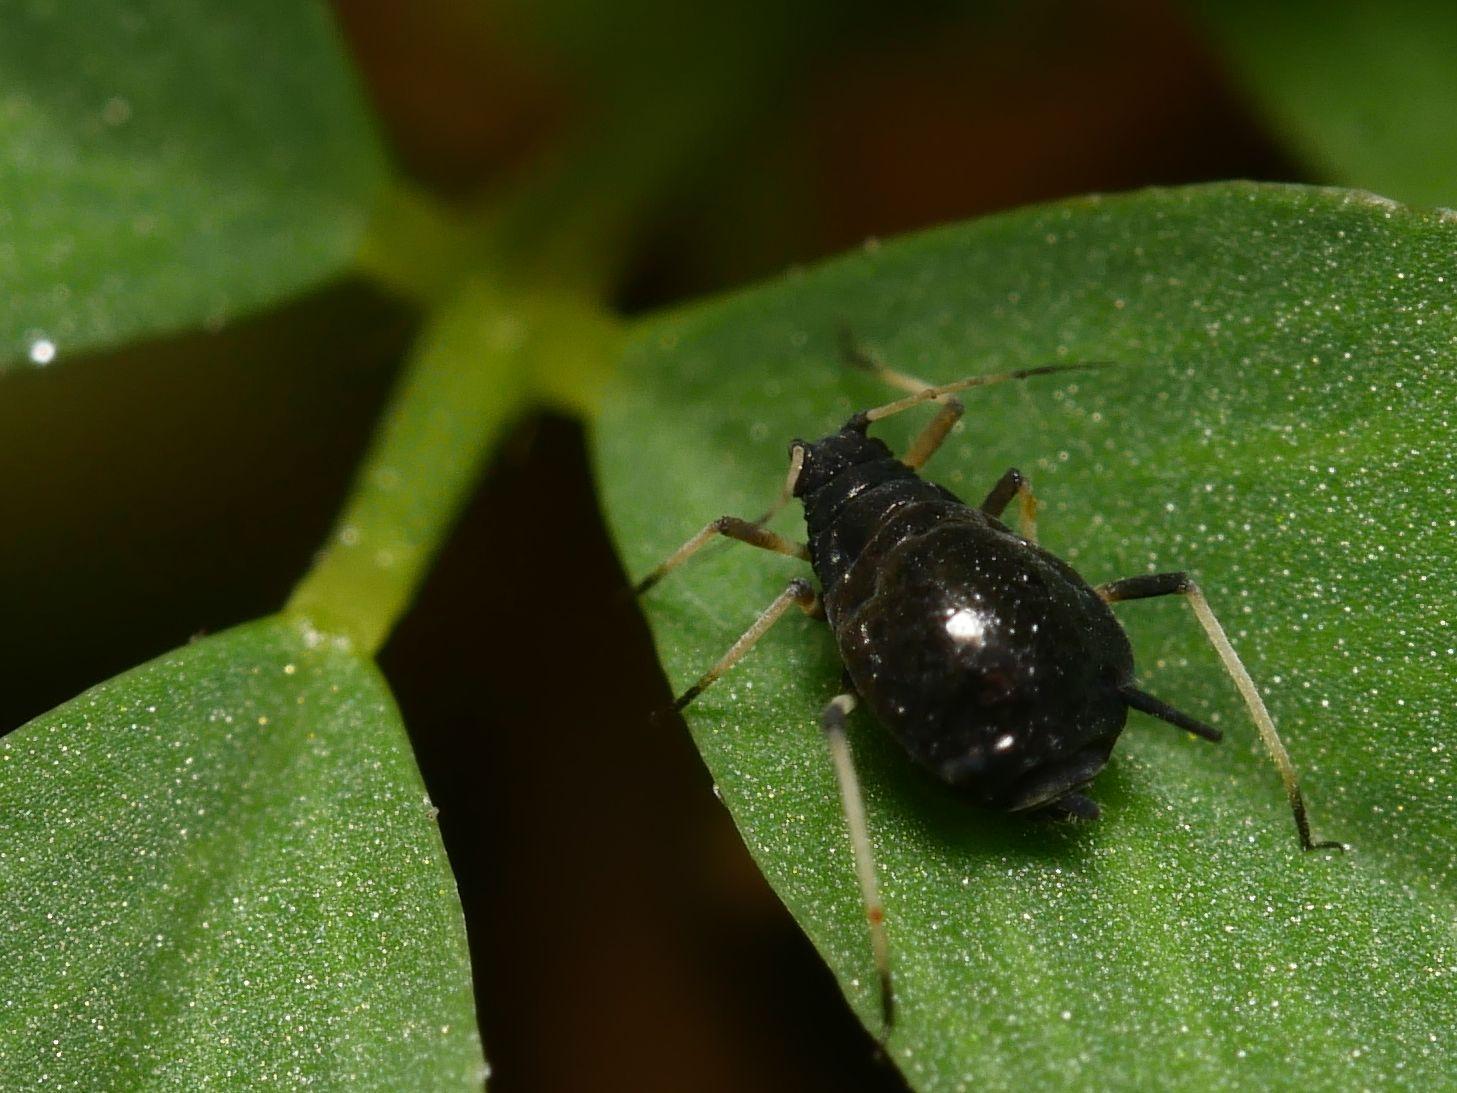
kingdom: Animalia
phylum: Arthropoda
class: Insecta
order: Hemiptera
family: Aphididae
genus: Aphis
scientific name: Aphis craccivora
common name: Cowpea aphid
